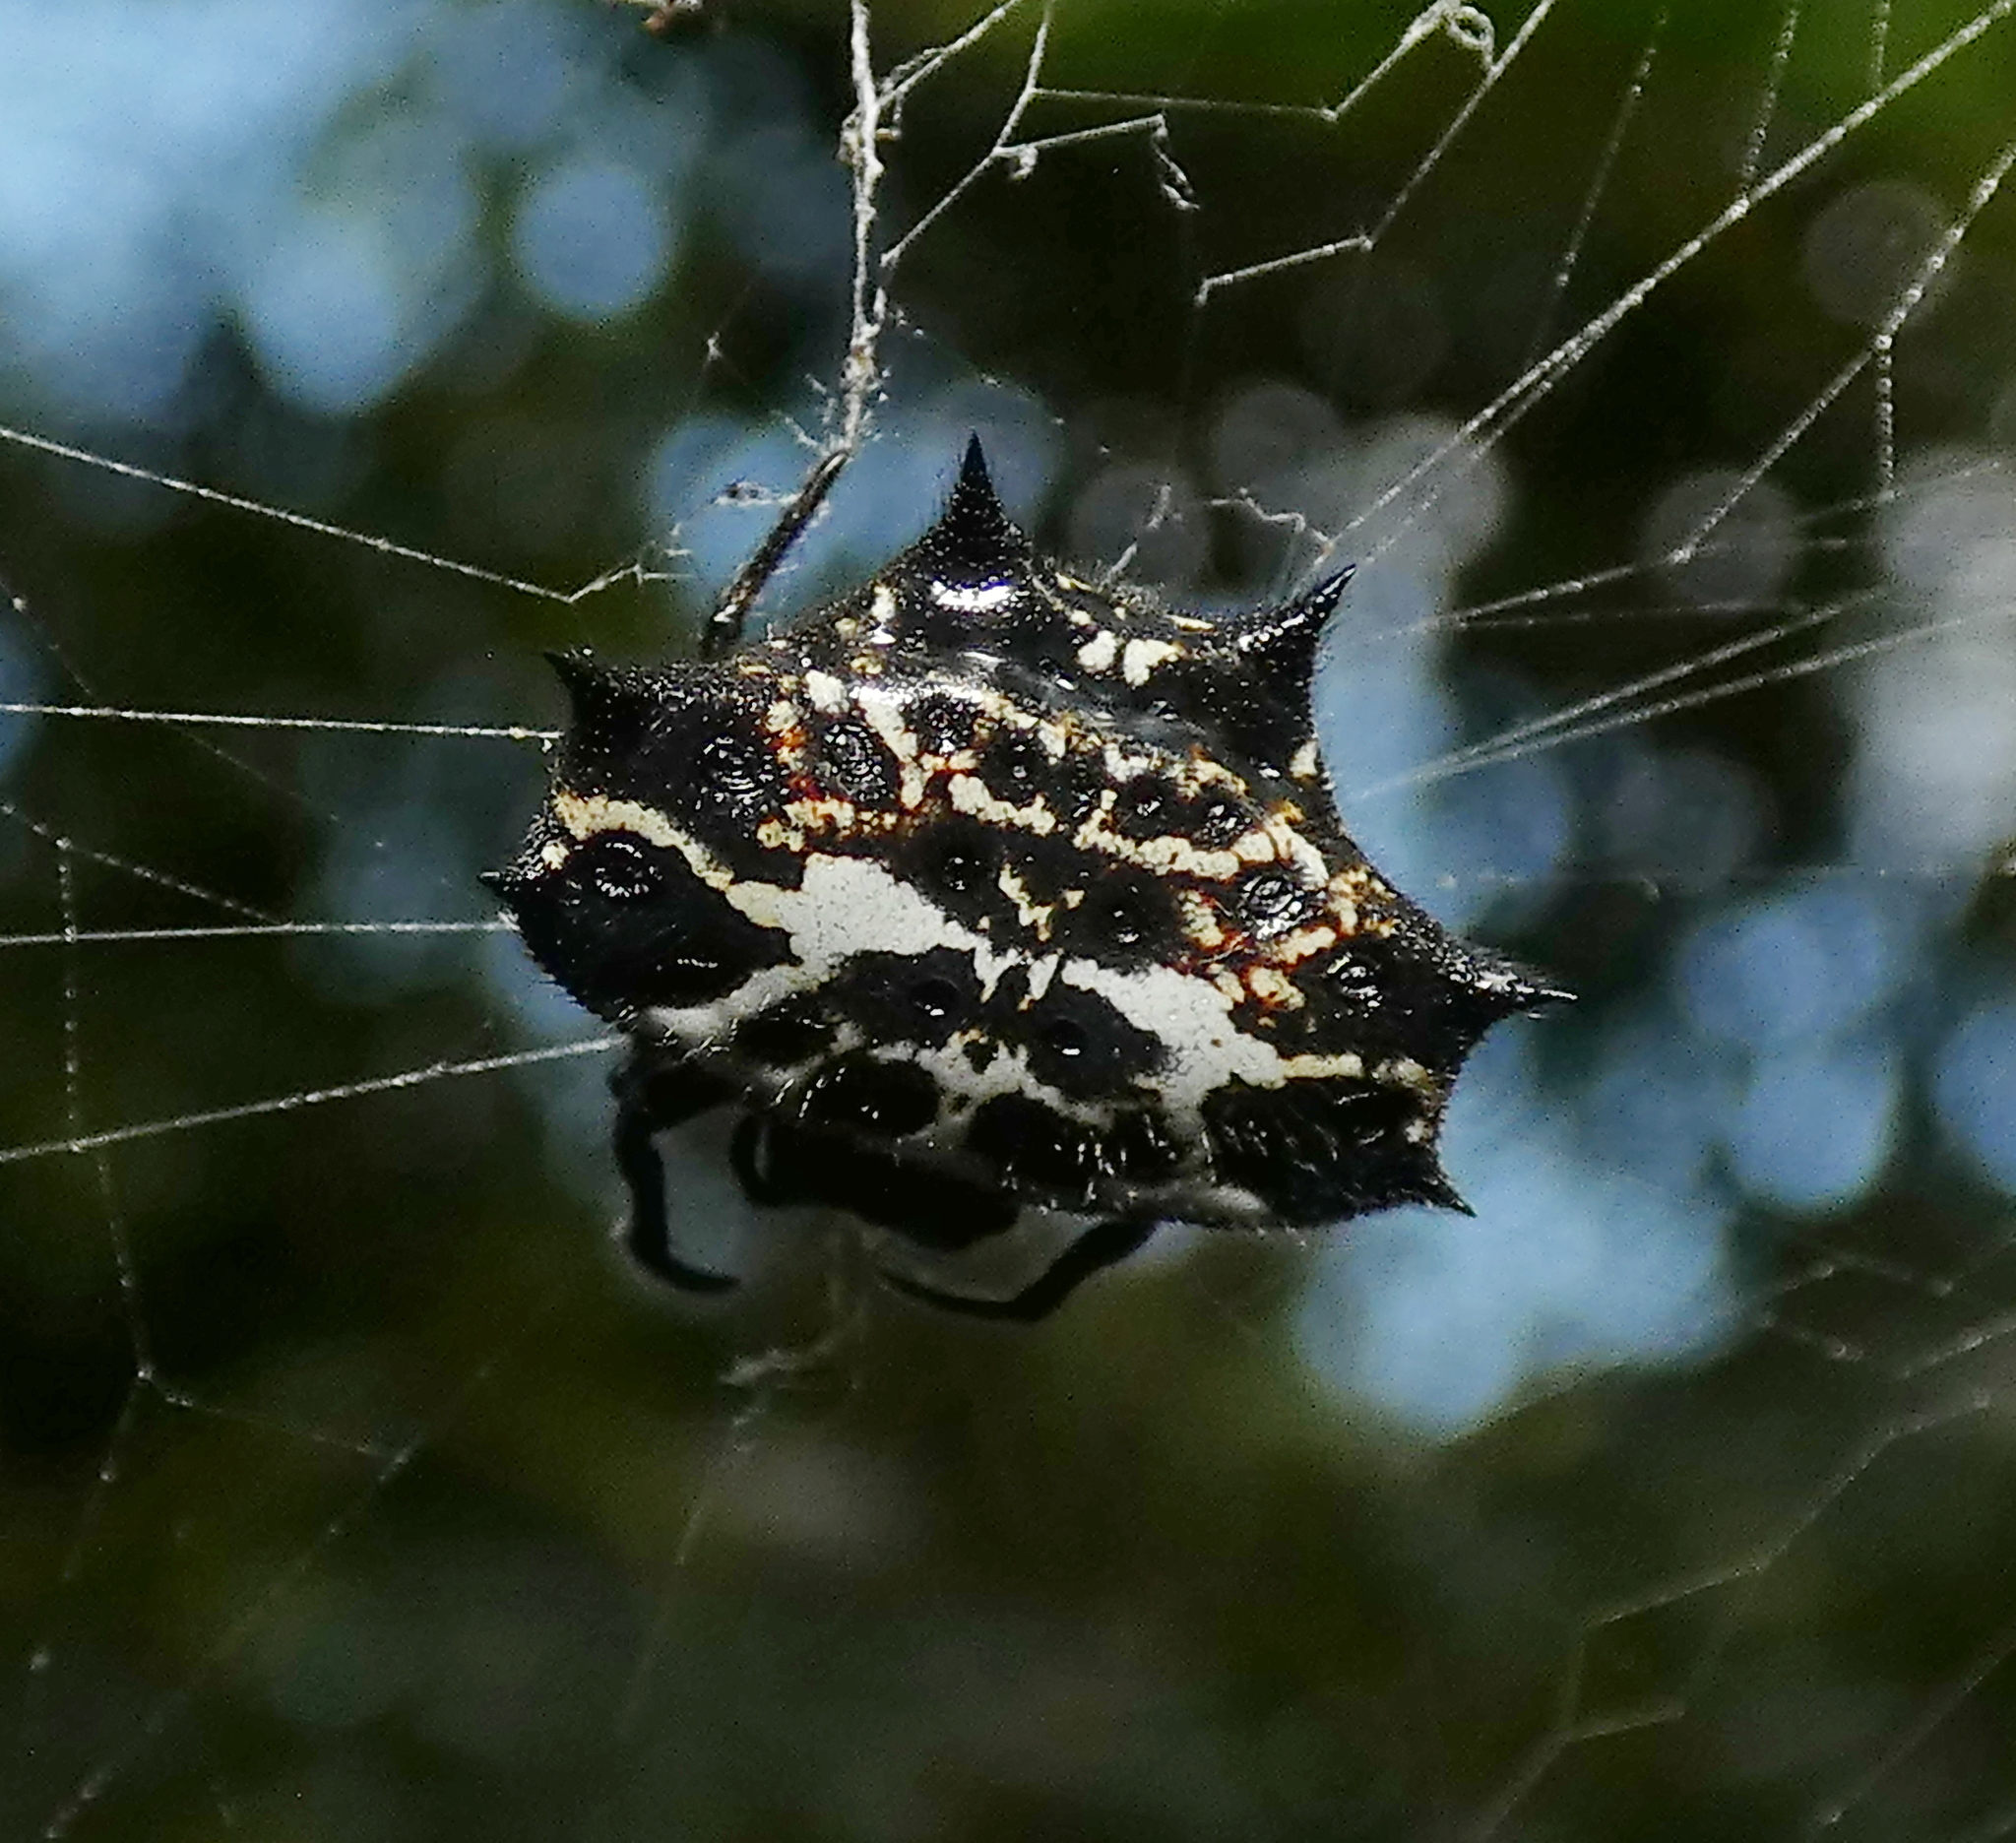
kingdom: Animalia
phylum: Arthropoda
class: Arachnida
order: Araneae
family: Araneidae
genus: Gasteracantha
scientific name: Gasteracantha cancriformis
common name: Orb weavers
